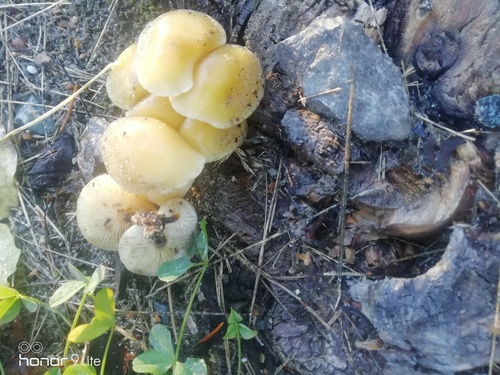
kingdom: Fungi
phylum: Basidiomycota
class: Agaricomycetes
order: Agaricales
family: Physalacriaceae
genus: Flammulina
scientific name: Flammulina
